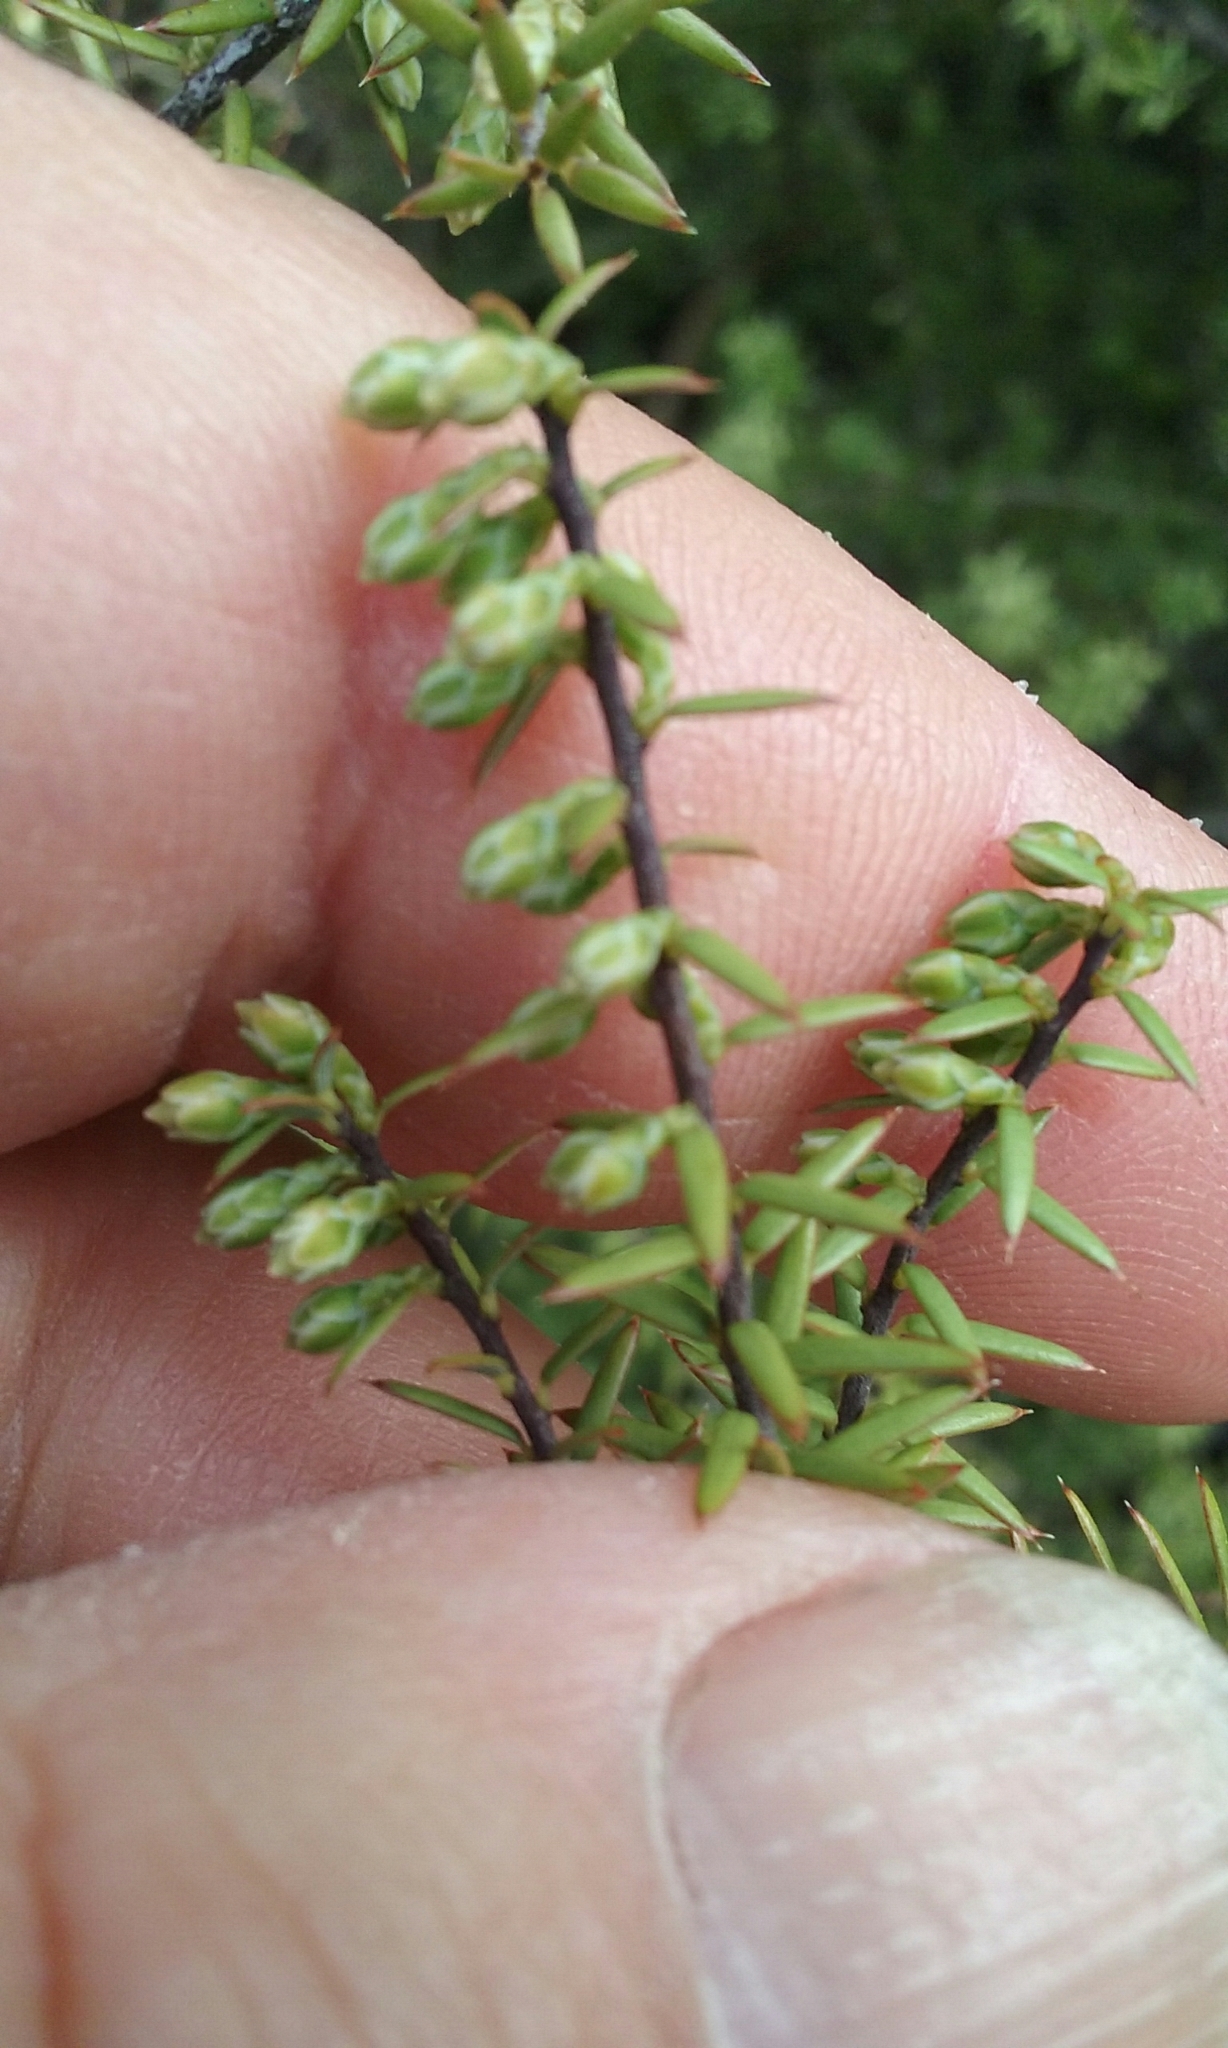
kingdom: Plantae
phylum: Tracheophyta
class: Magnoliopsida
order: Ericales
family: Ericaceae
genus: Leptecophylla
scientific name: Leptecophylla juniperina
